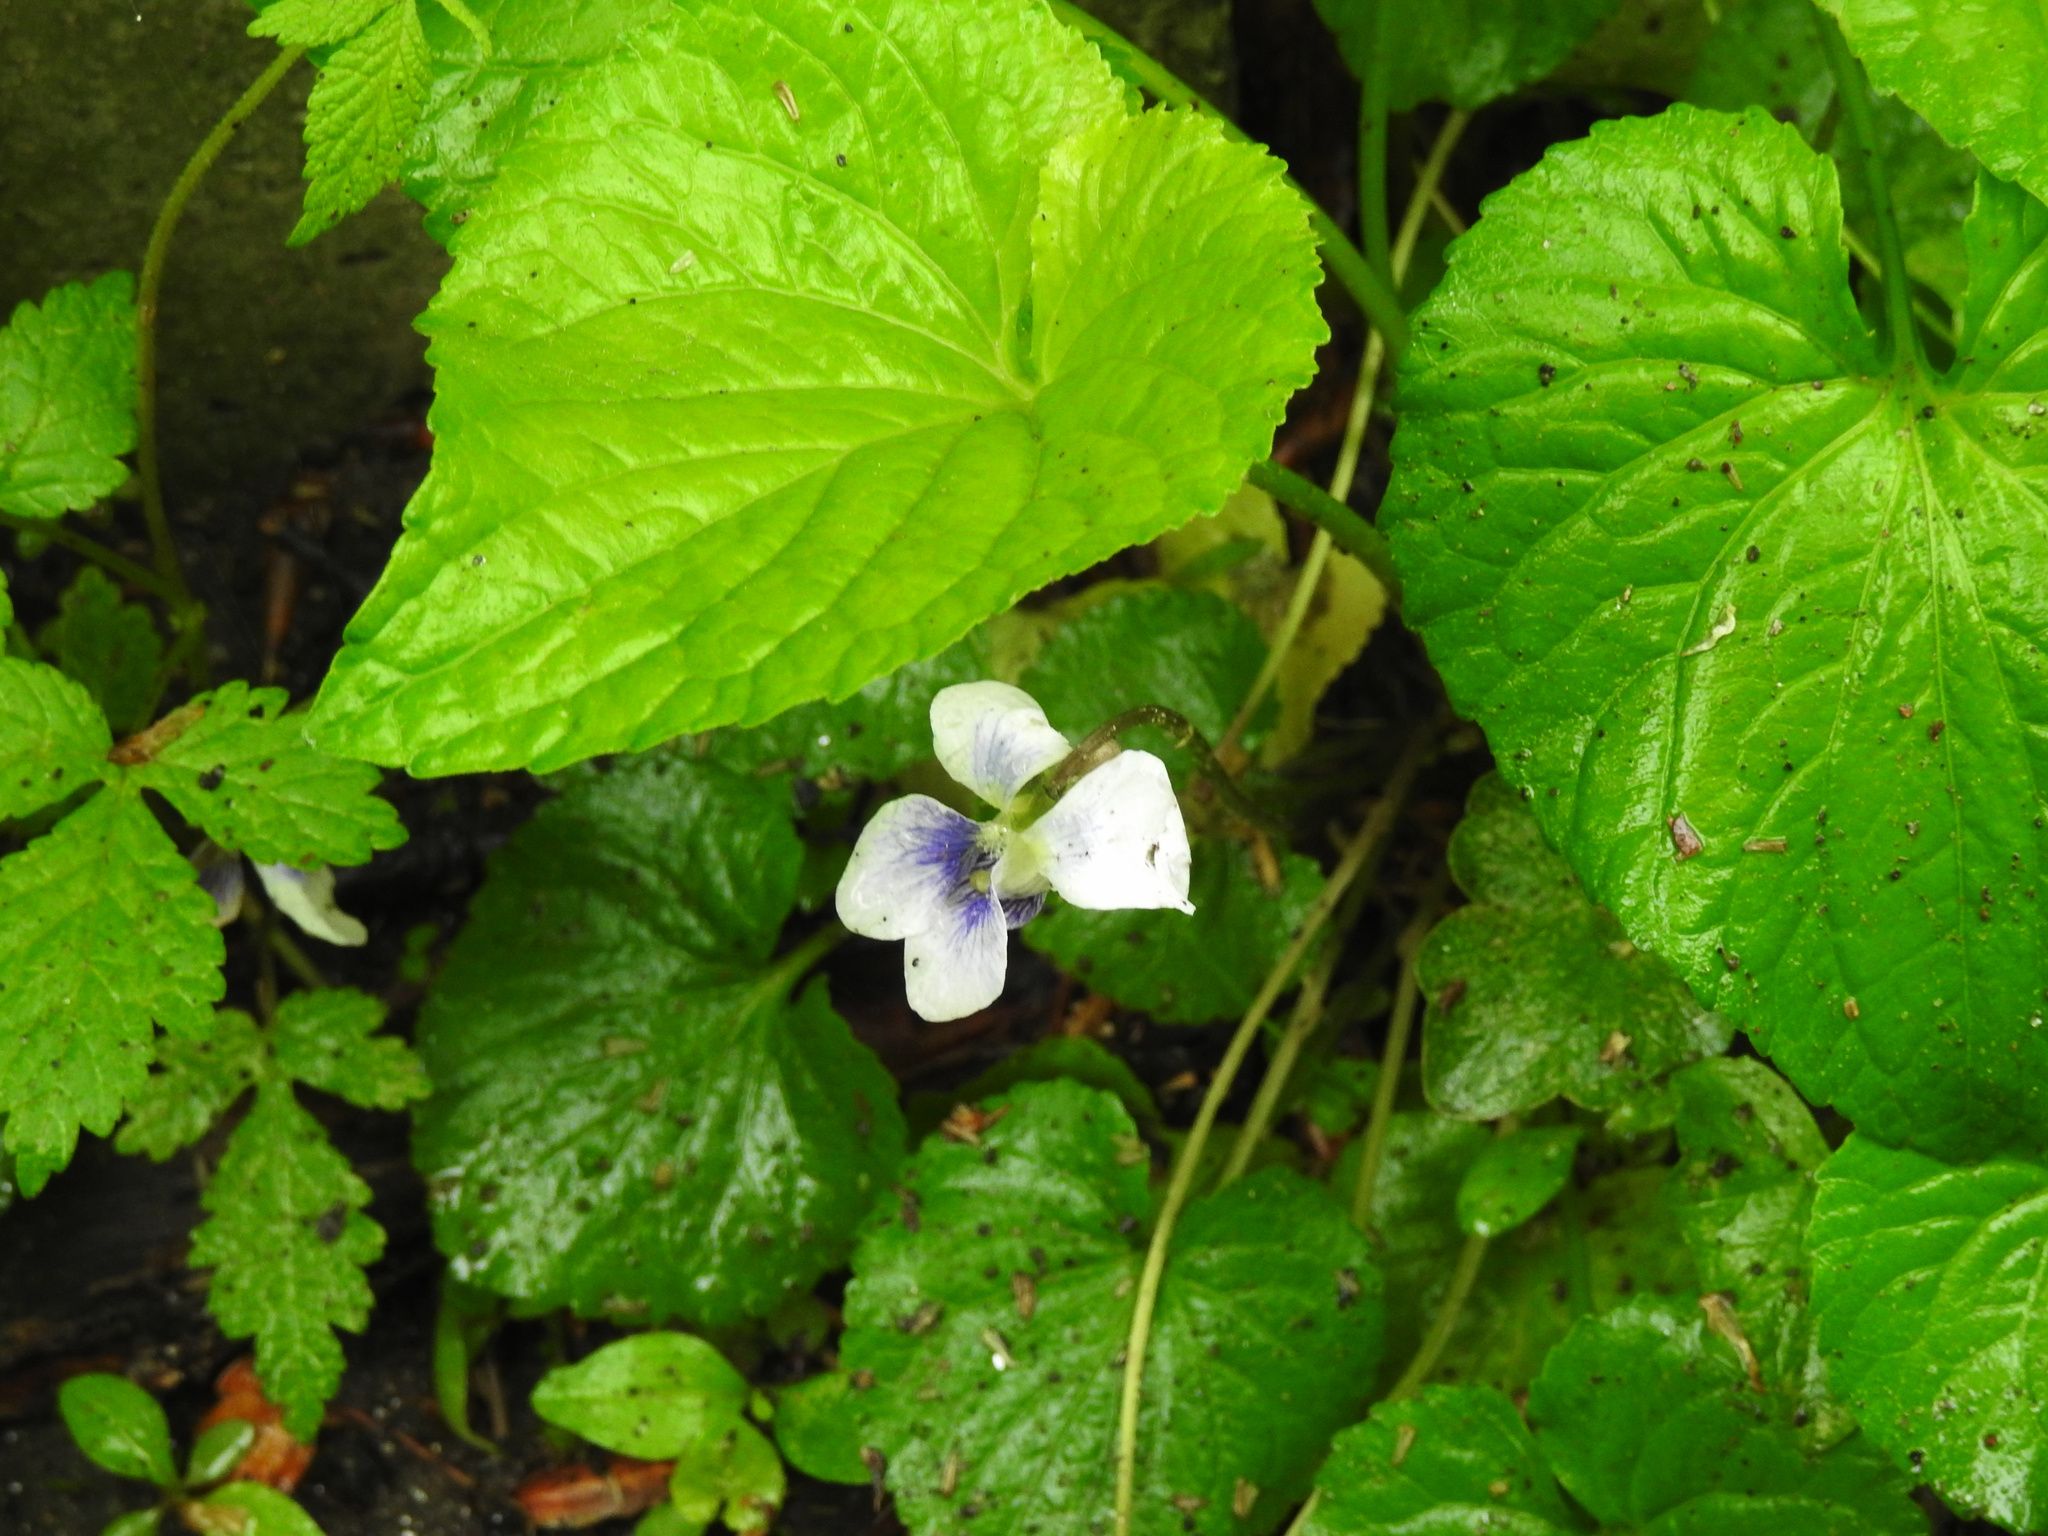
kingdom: Plantae
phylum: Tracheophyta
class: Magnoliopsida
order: Malpighiales
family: Violaceae
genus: Viola
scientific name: Viola sororia
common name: Dooryard violet
